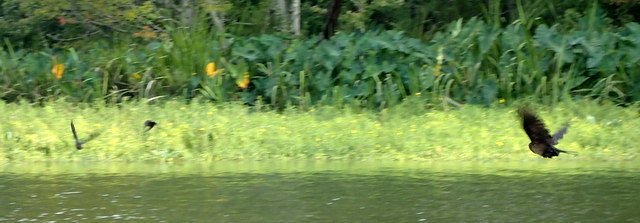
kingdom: Animalia
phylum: Chordata
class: Aves
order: Passeriformes
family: Icteridae
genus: Quiscalus
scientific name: Quiscalus major
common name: Boat-tailed grackle
